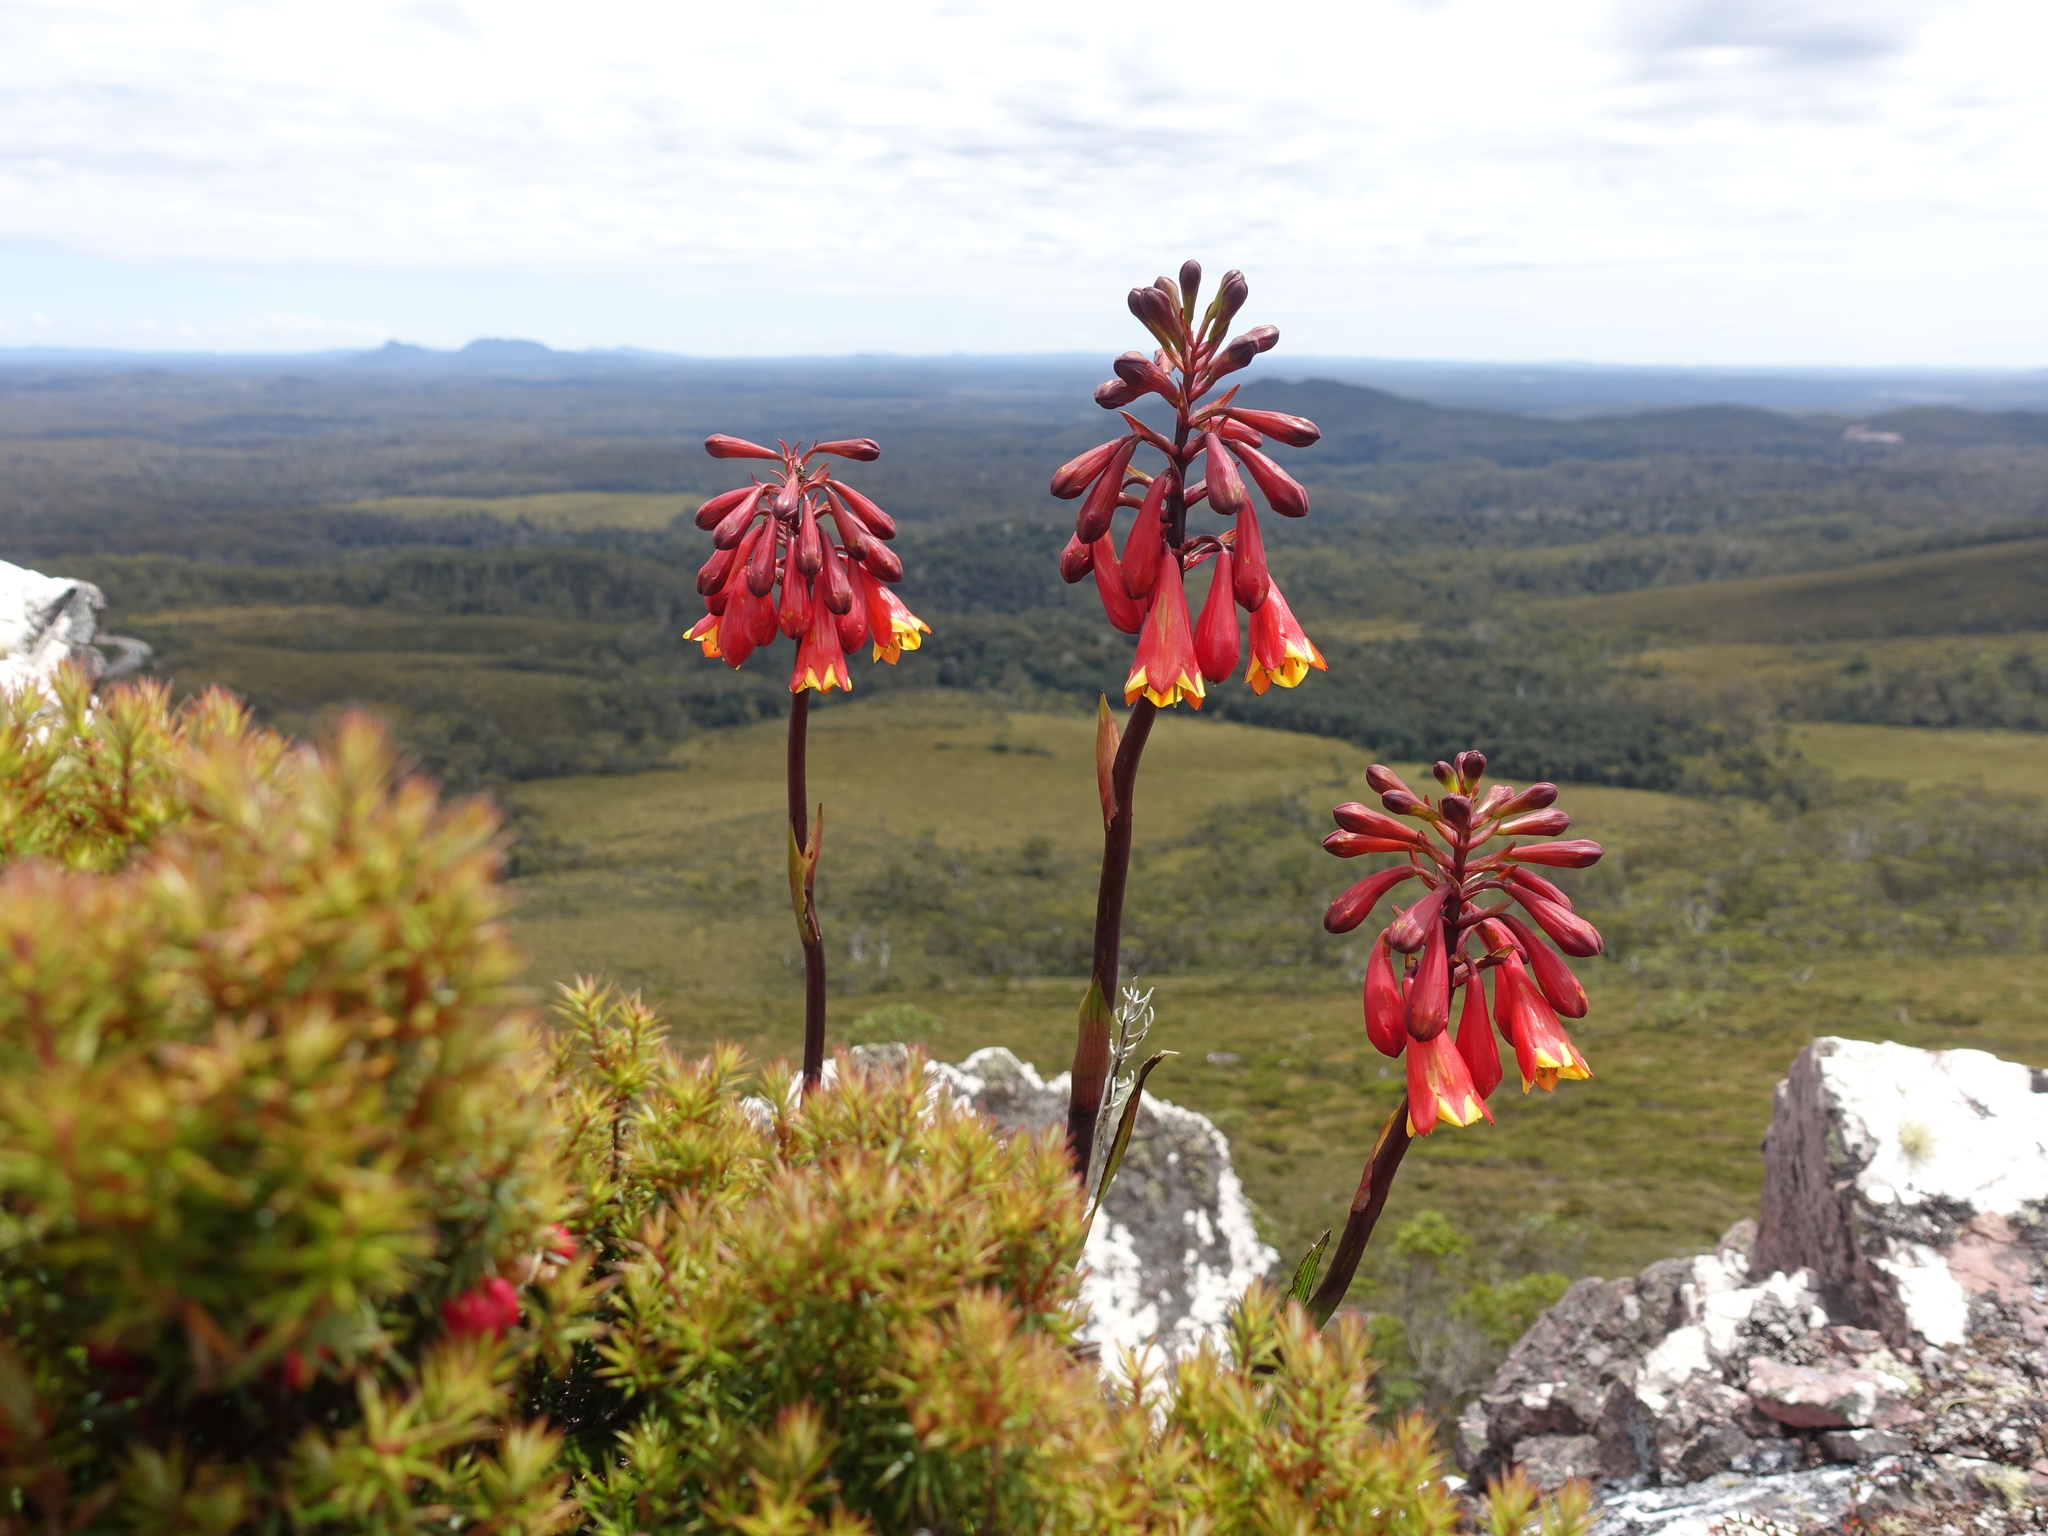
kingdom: Plantae
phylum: Tracheophyta
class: Liliopsida
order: Asparagales
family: Blandfordiaceae
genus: Blandfordia
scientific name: Blandfordia punicea
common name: Tasmanian christmas-bell
